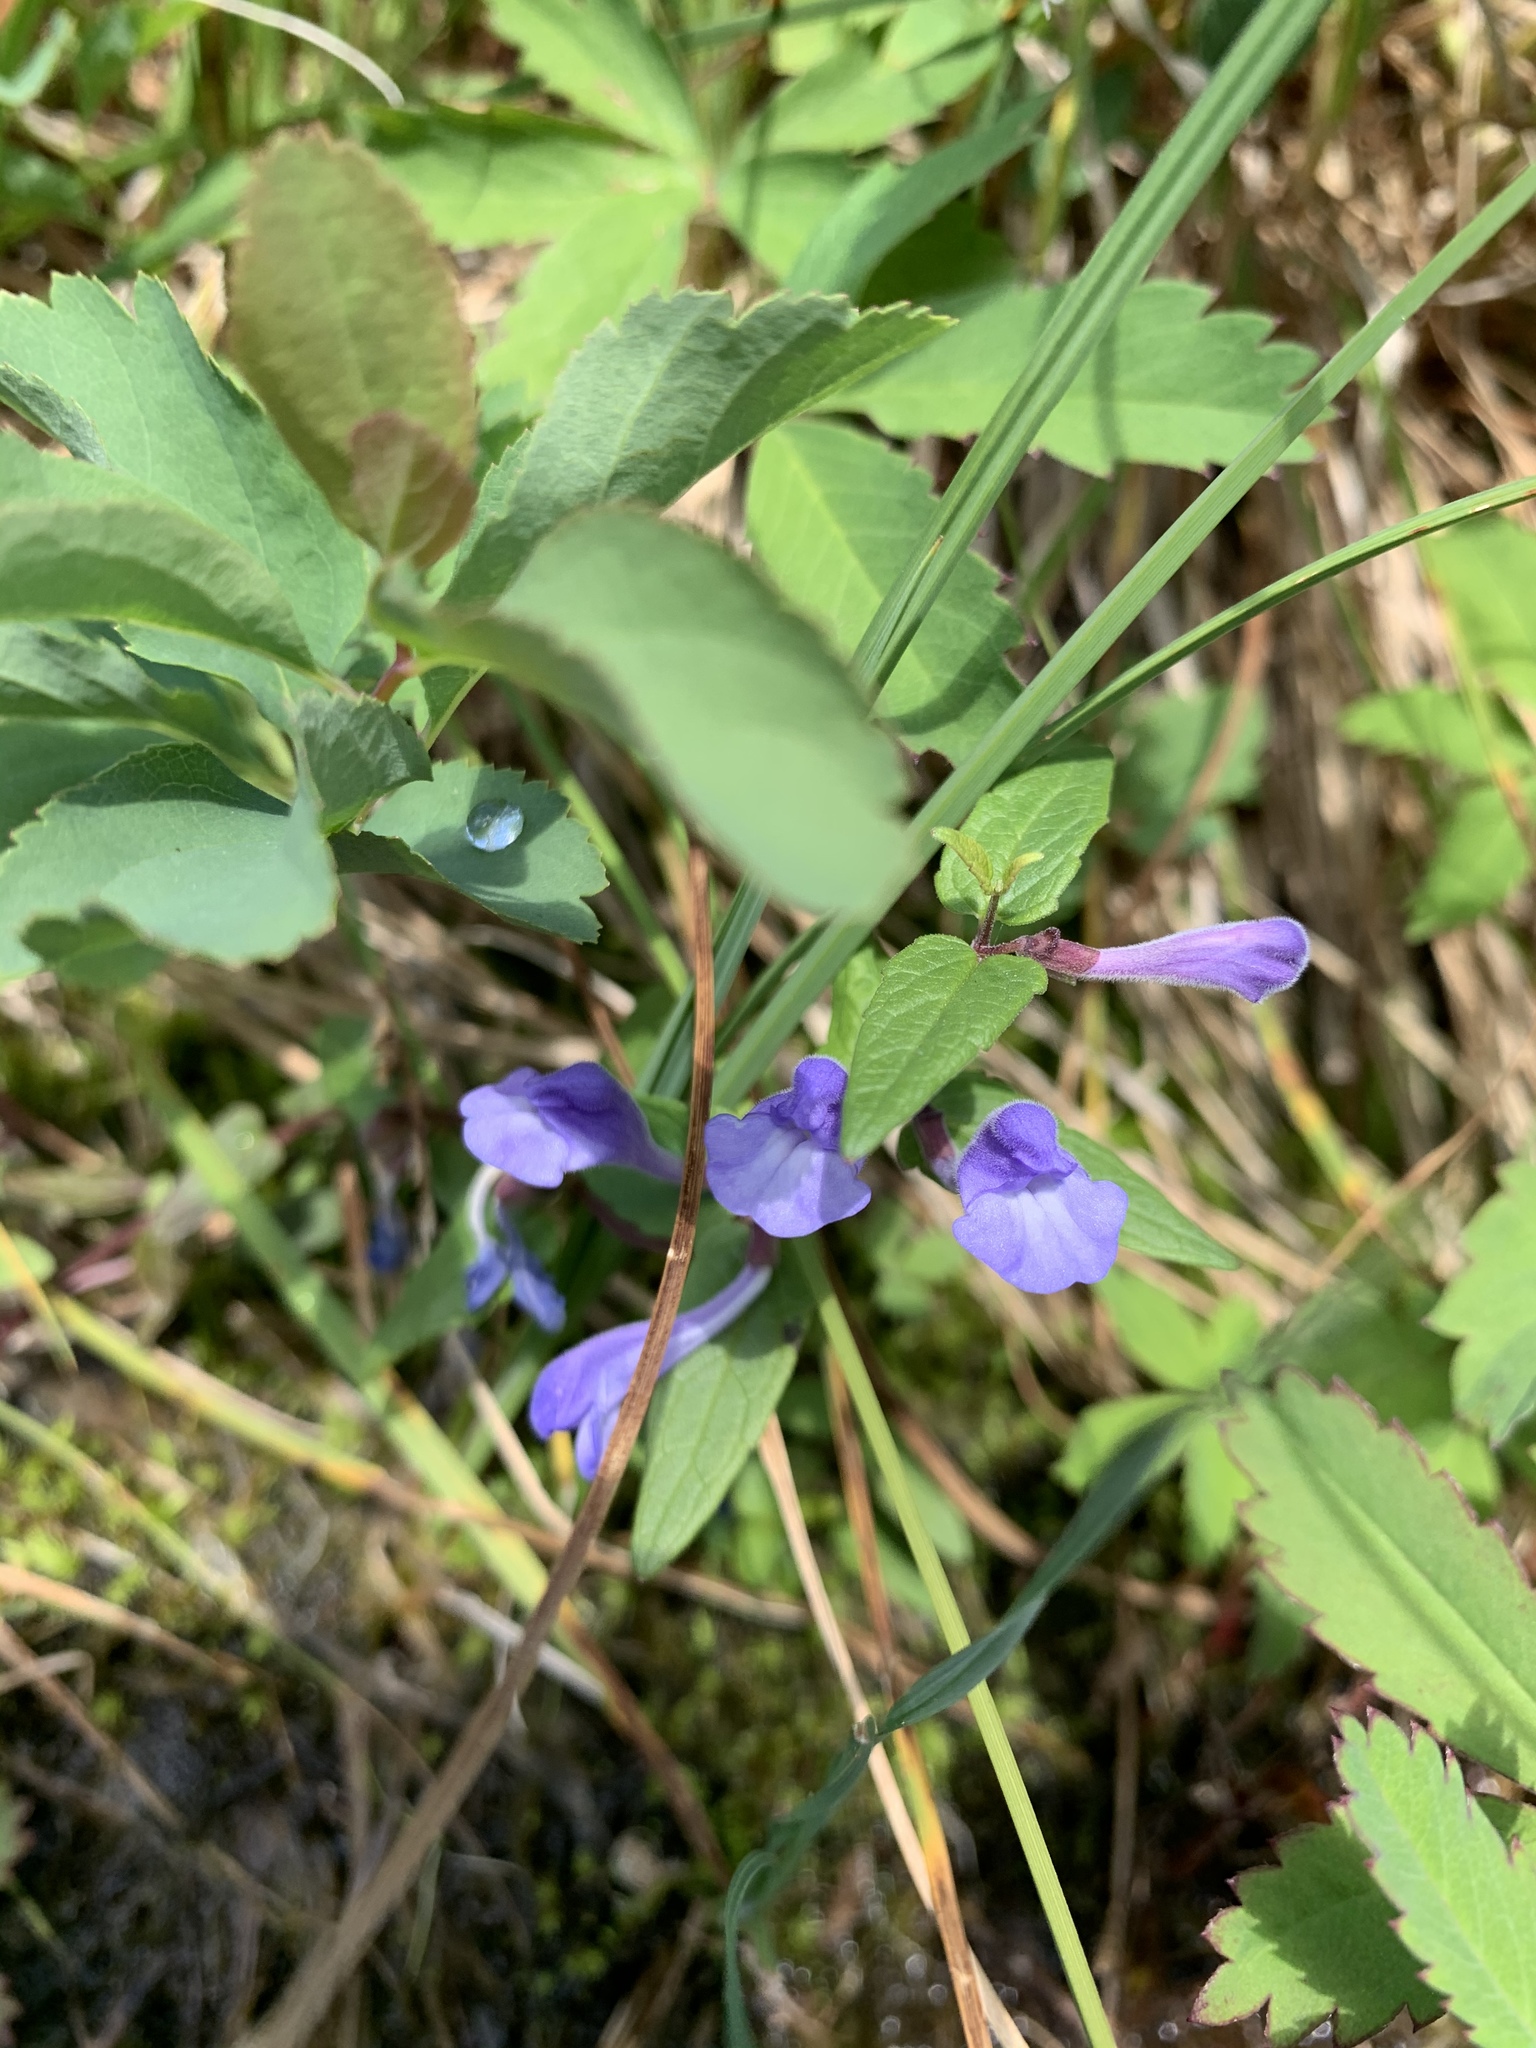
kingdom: Plantae
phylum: Tracheophyta
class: Magnoliopsida
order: Lamiales
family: Lamiaceae
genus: Scutellaria
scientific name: Scutellaria galericulata
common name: Skullcap
